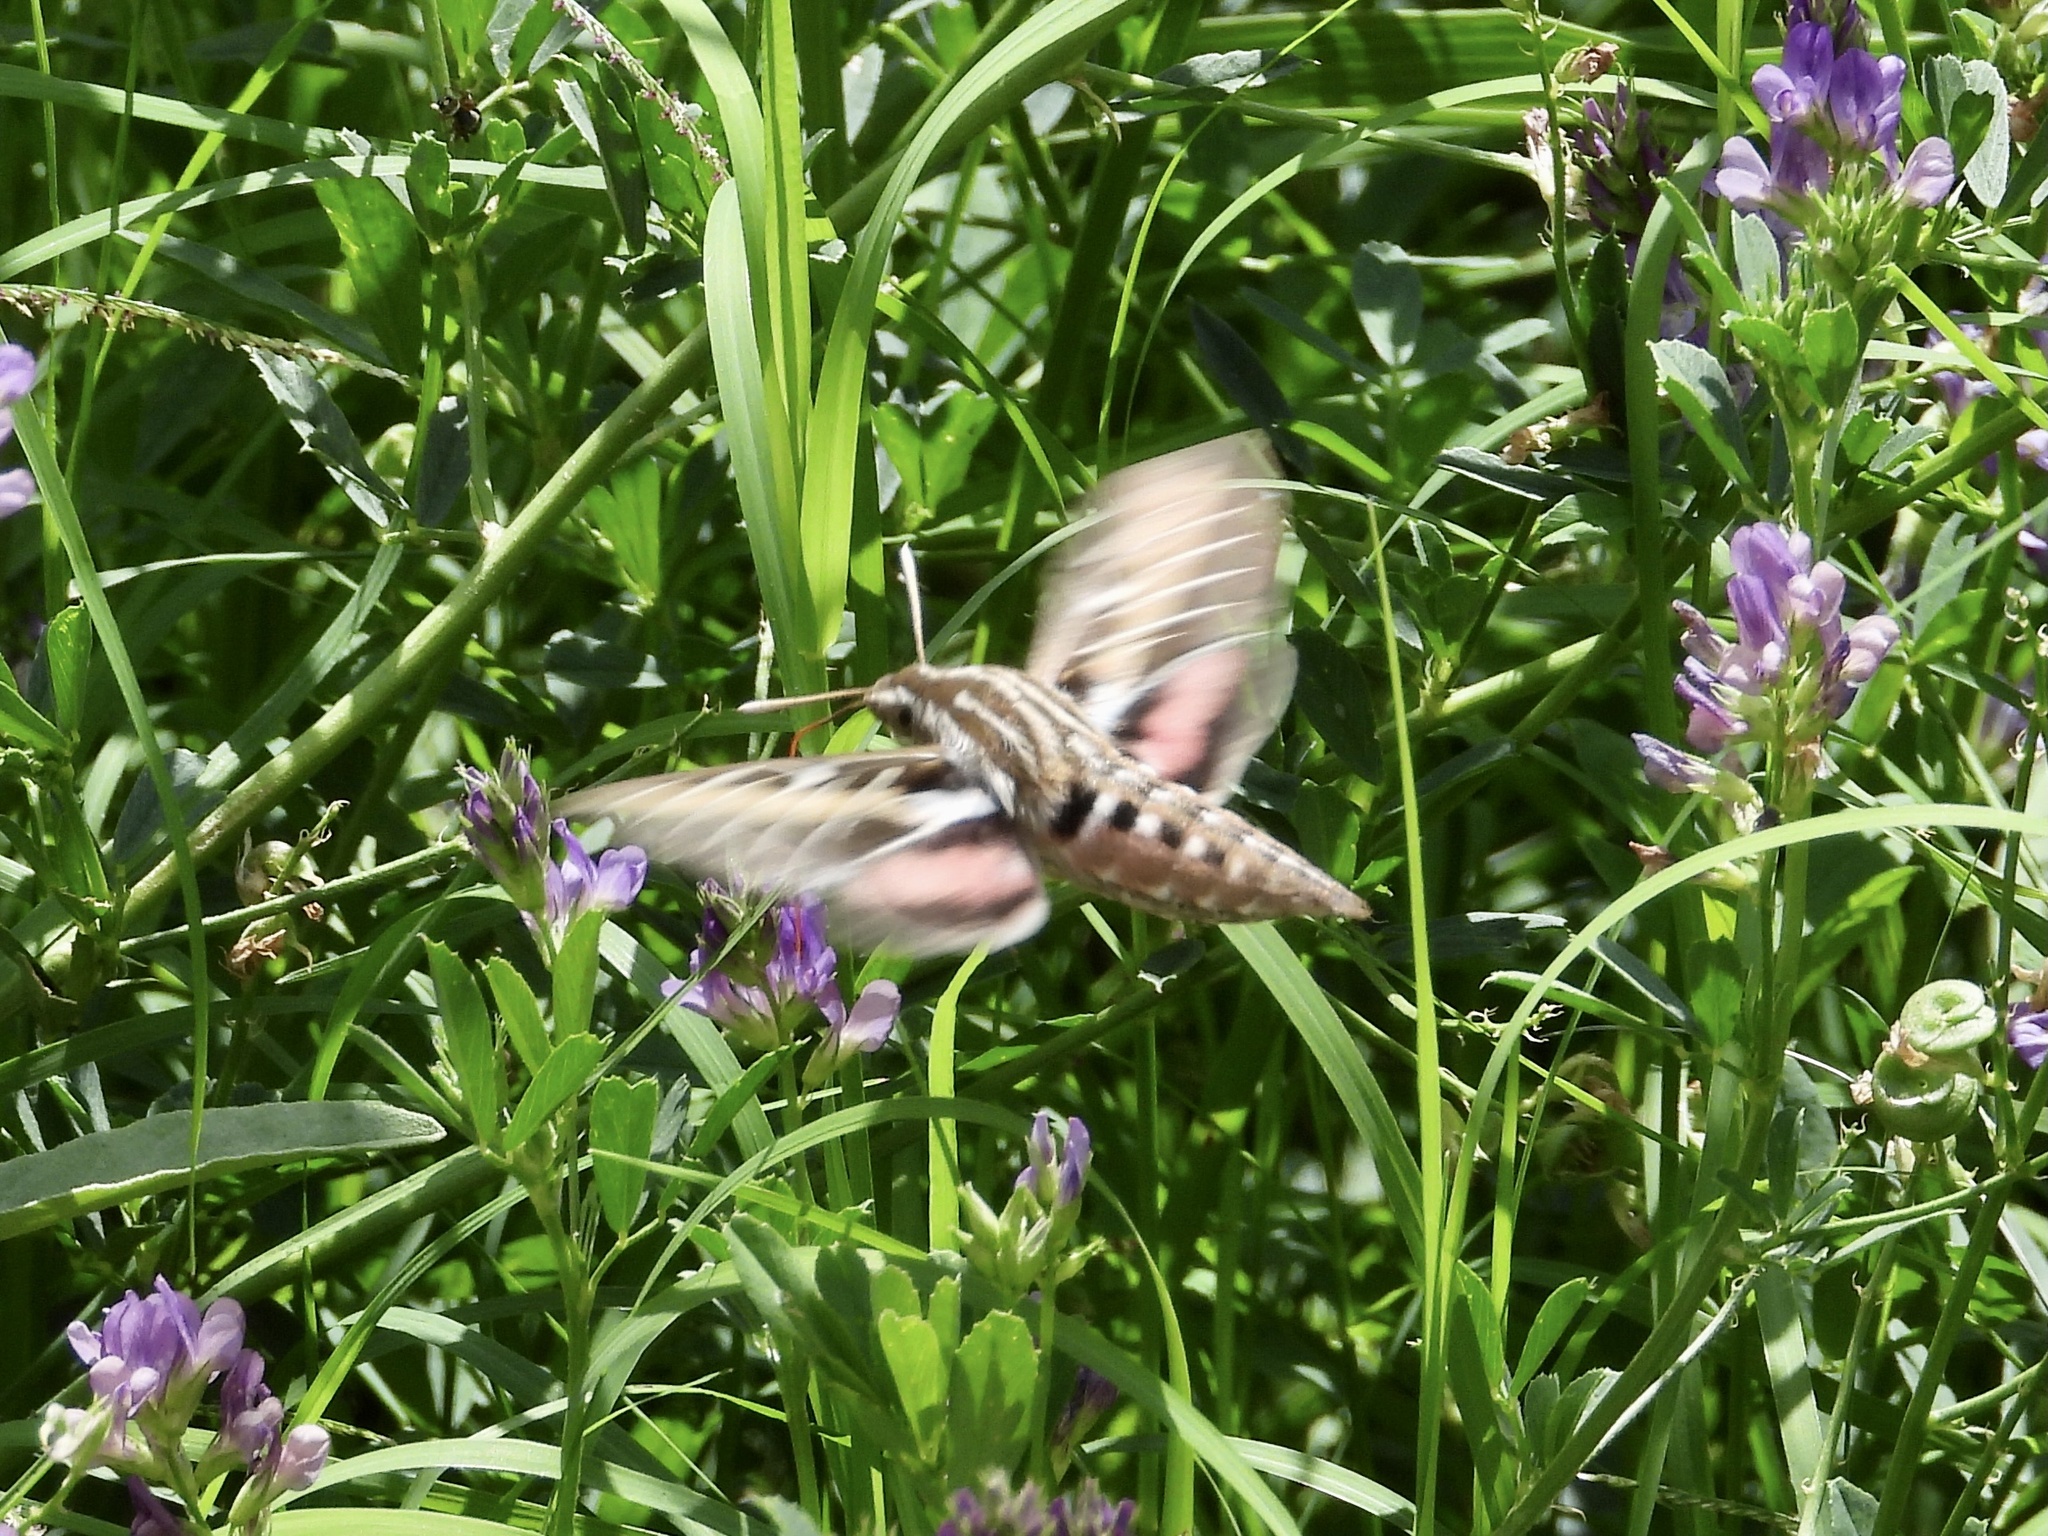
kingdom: Animalia
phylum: Arthropoda
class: Insecta
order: Lepidoptera
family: Sphingidae
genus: Hyles
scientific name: Hyles lineata
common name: White-lined sphinx
